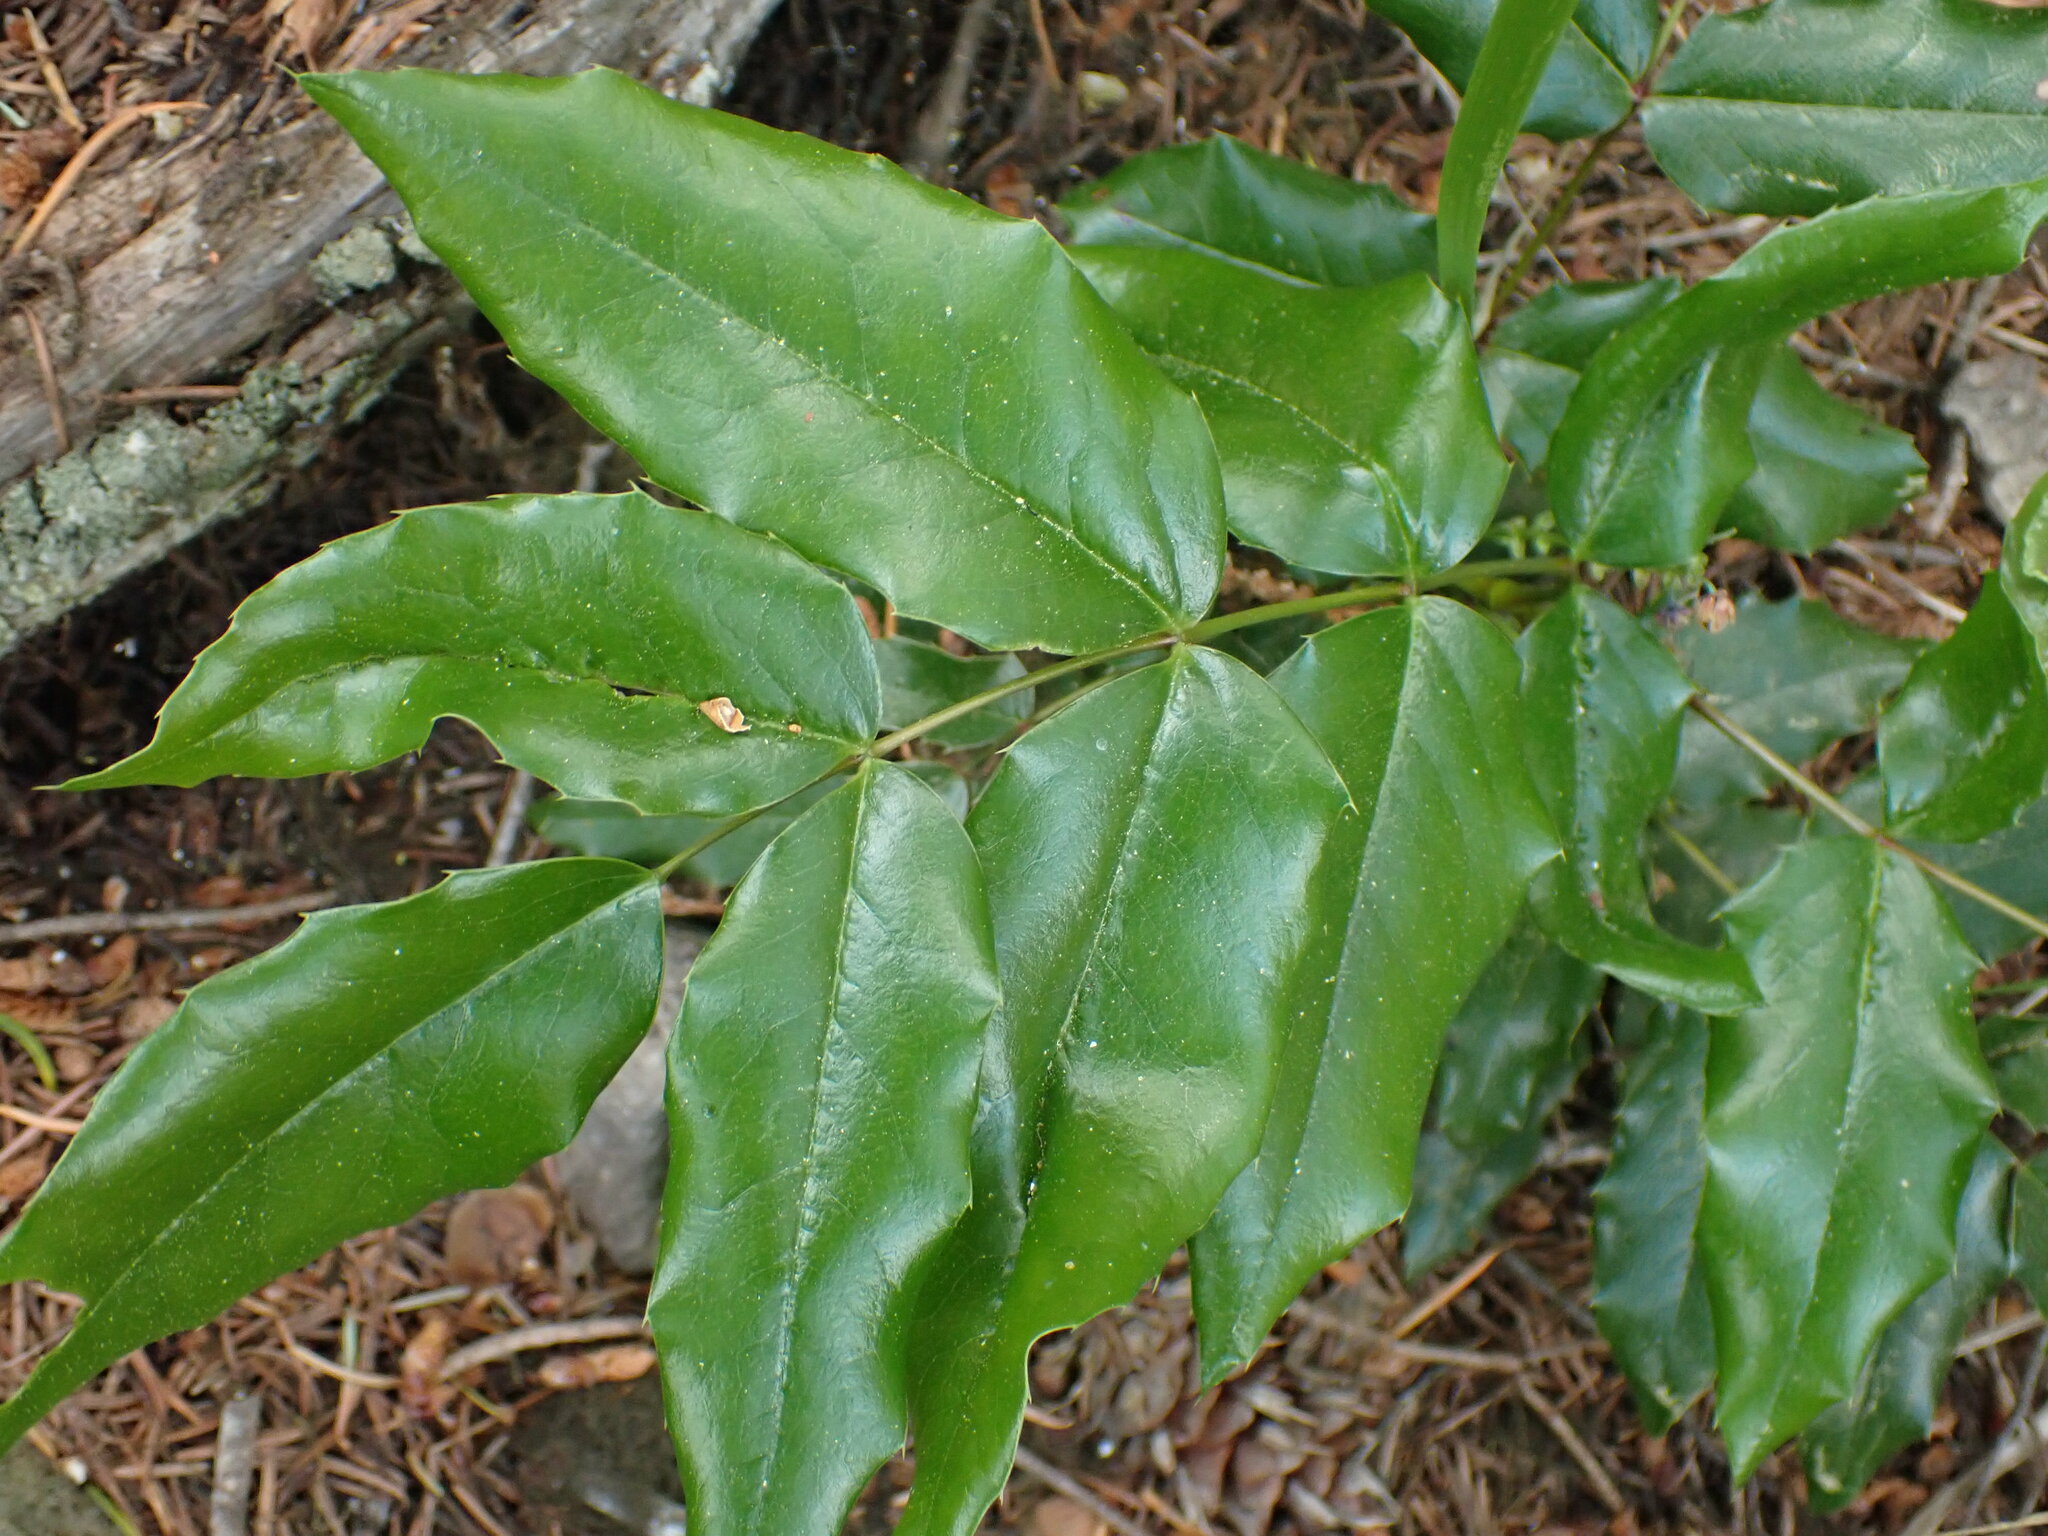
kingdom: Plantae
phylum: Tracheophyta
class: Magnoliopsida
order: Ranunculales
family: Berberidaceae
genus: Mahonia
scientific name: Mahonia aquifolium
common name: Oregon-grape
